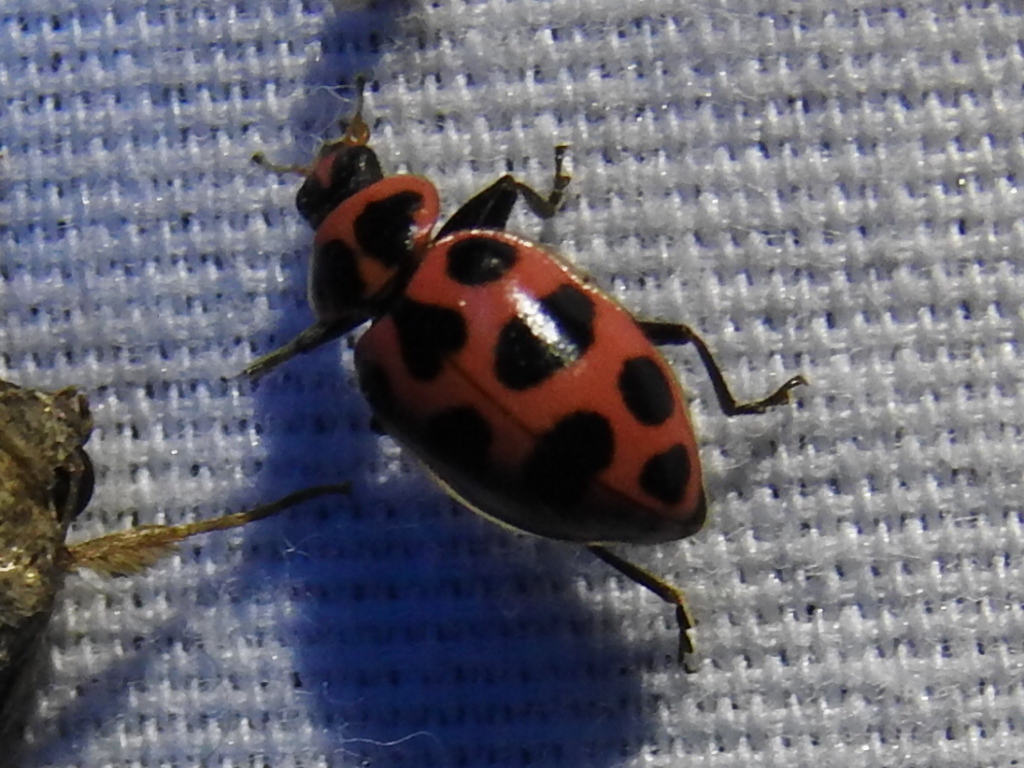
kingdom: Animalia
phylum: Arthropoda
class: Insecta
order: Coleoptera
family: Coccinellidae
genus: Coleomegilla
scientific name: Coleomegilla maculata
